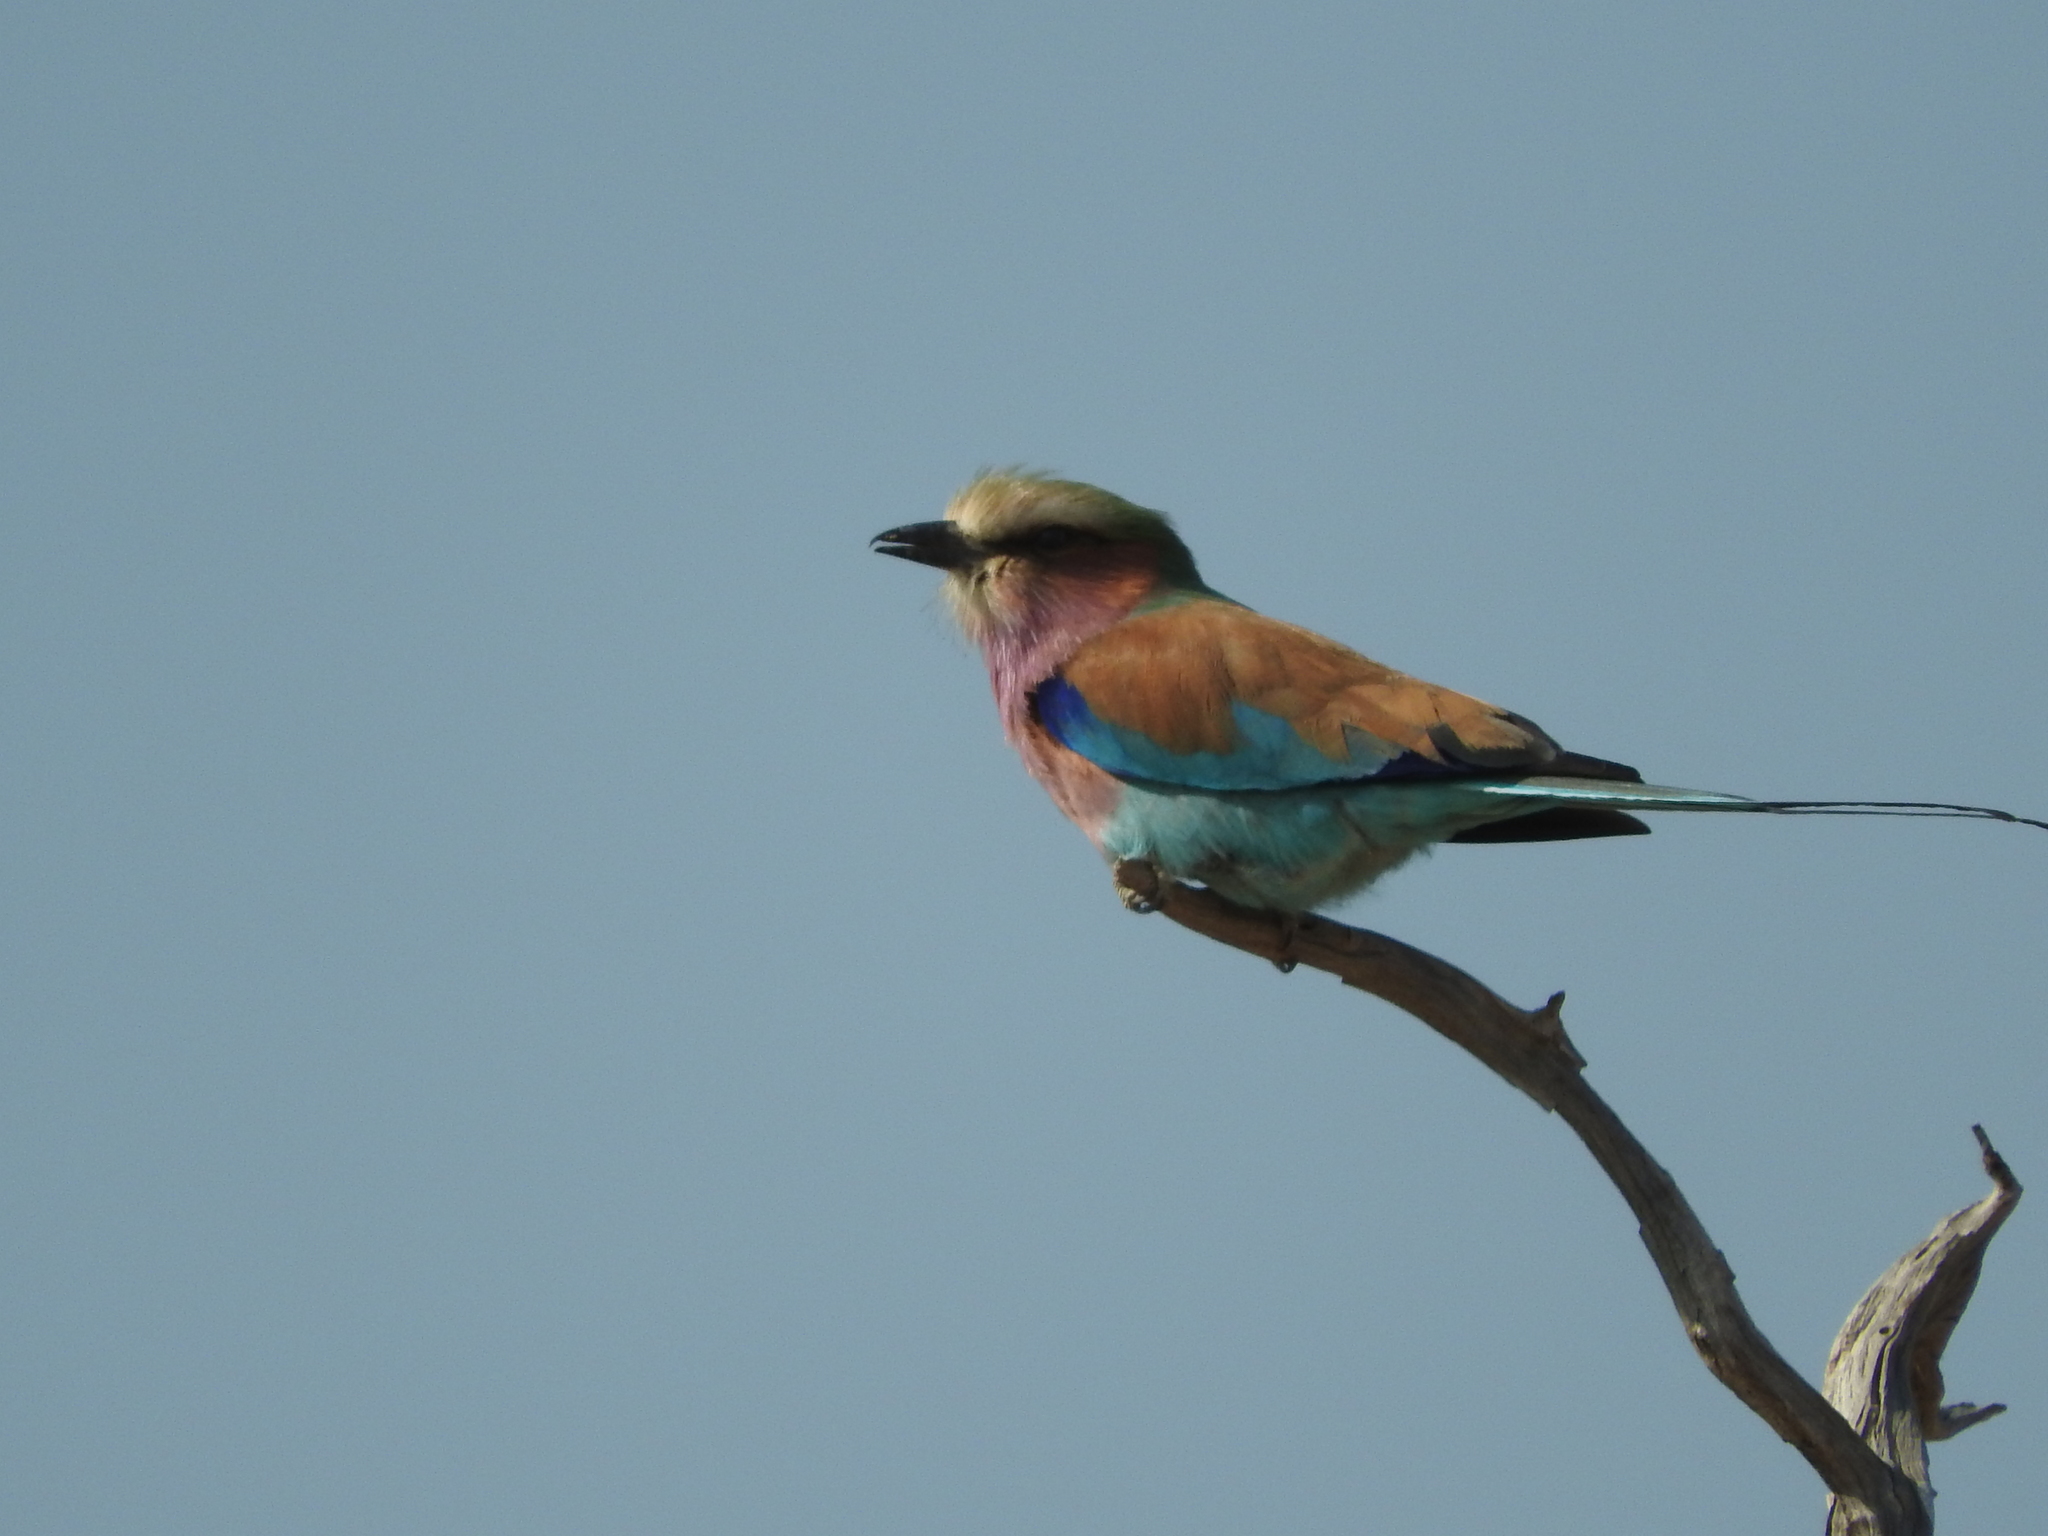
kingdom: Animalia
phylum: Chordata
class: Aves
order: Coraciiformes
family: Coraciidae
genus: Coracias
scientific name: Coracias caudatus
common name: Lilac-breasted roller
